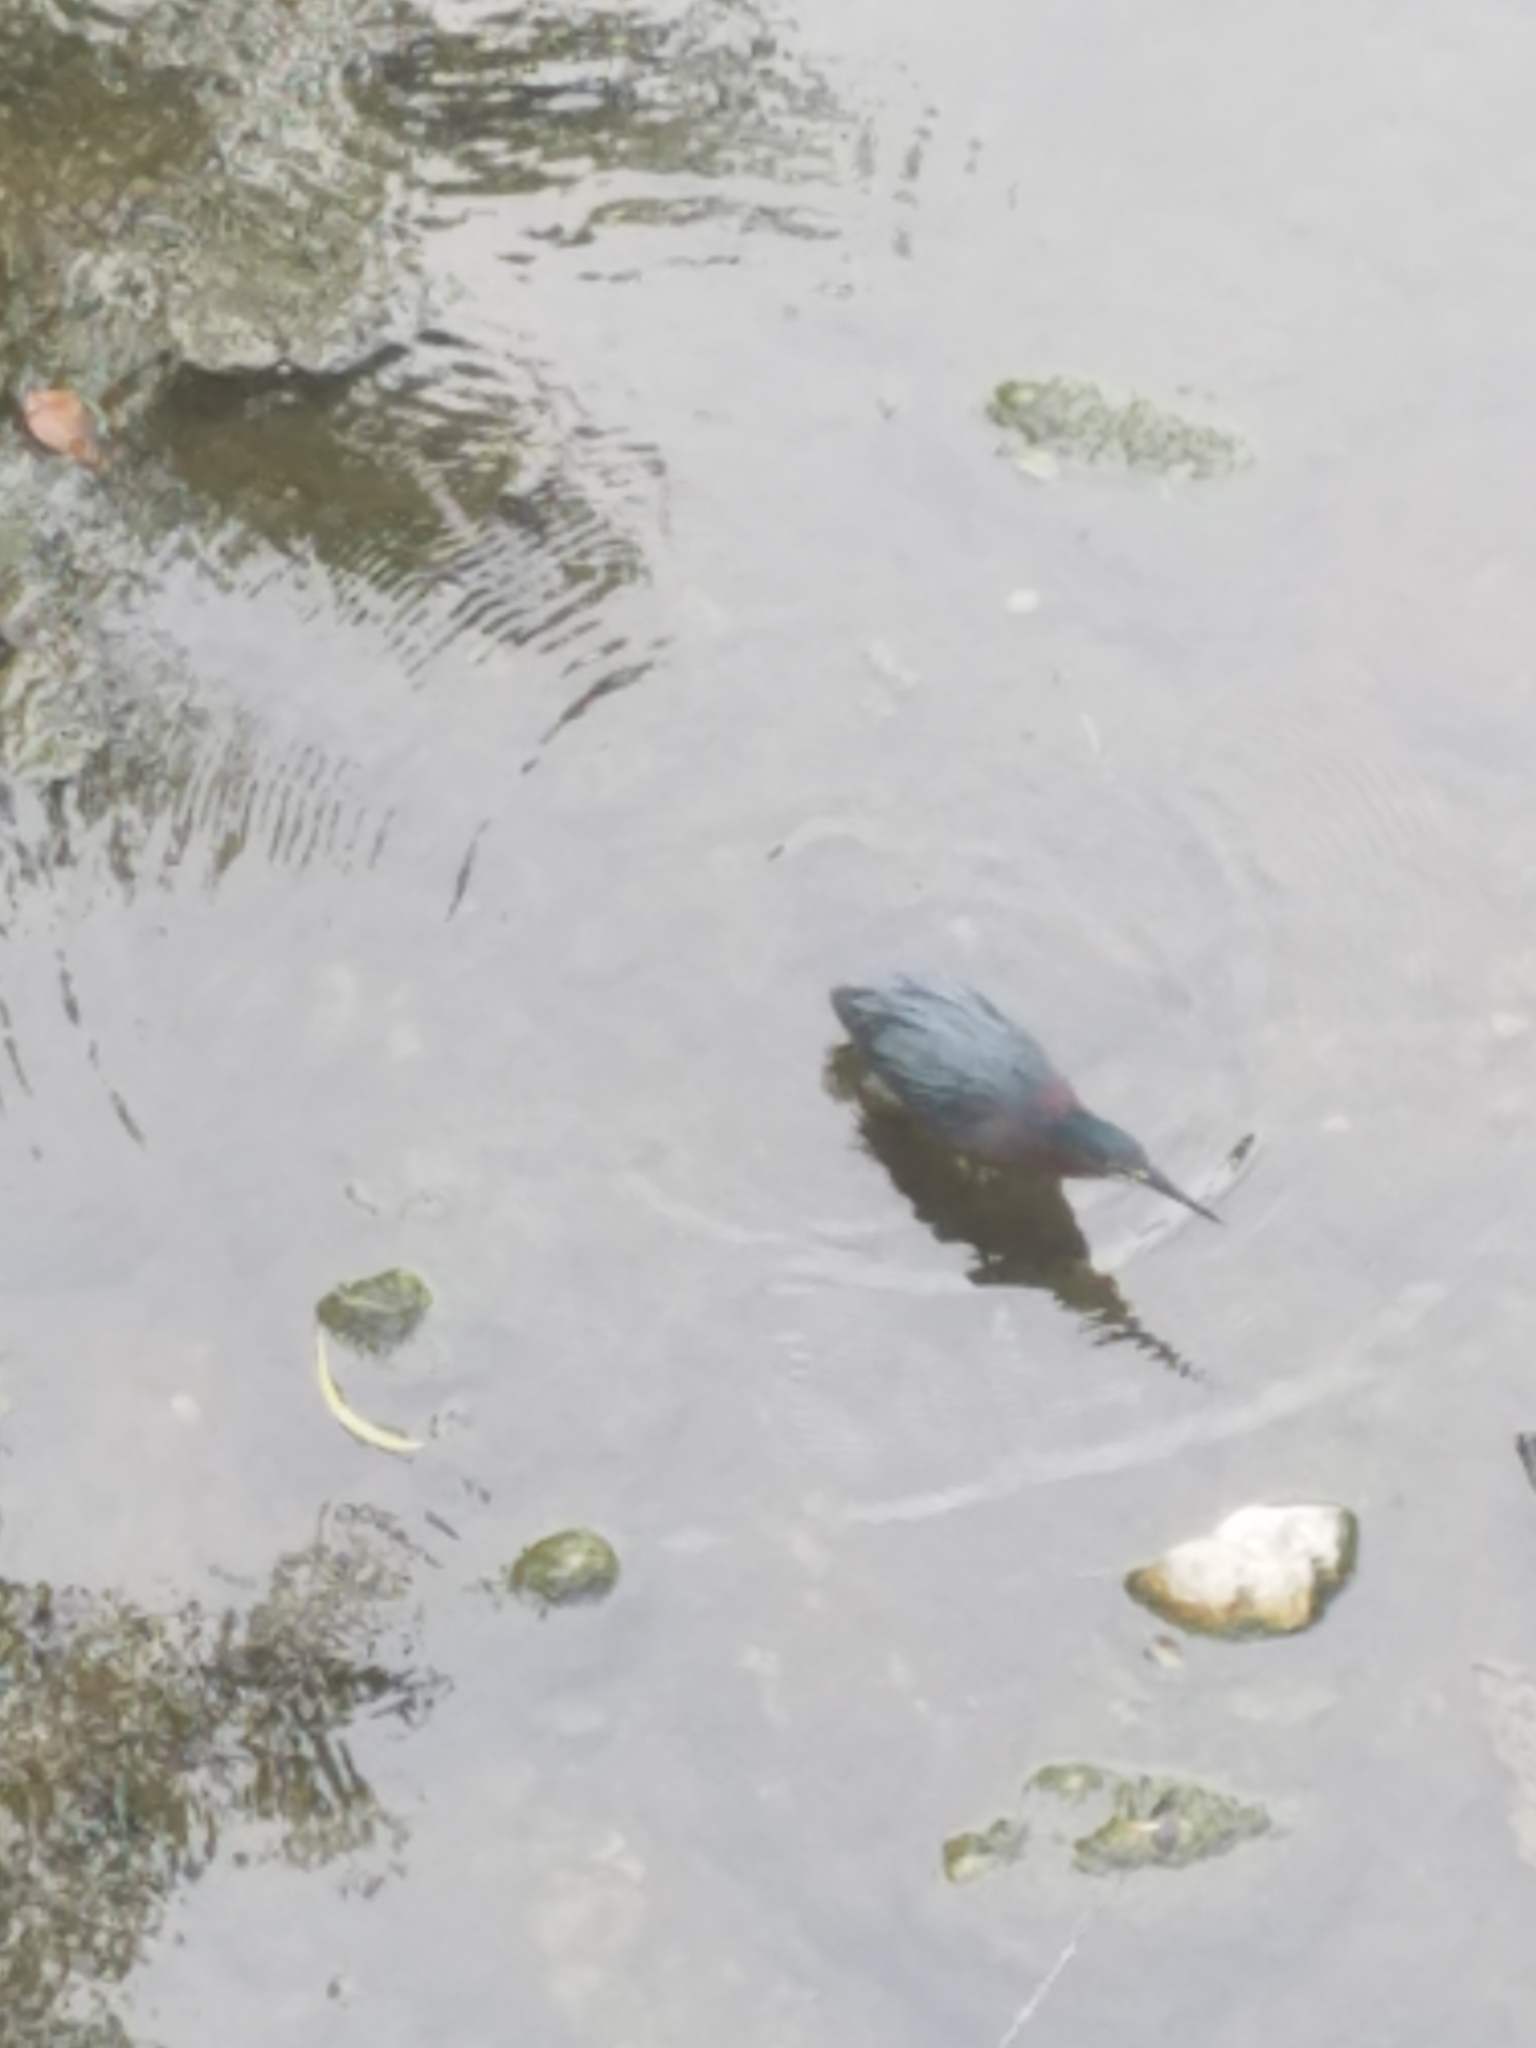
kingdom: Animalia
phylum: Chordata
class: Aves
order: Pelecaniformes
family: Ardeidae
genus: Butorides
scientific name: Butorides virescens
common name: Green heron
